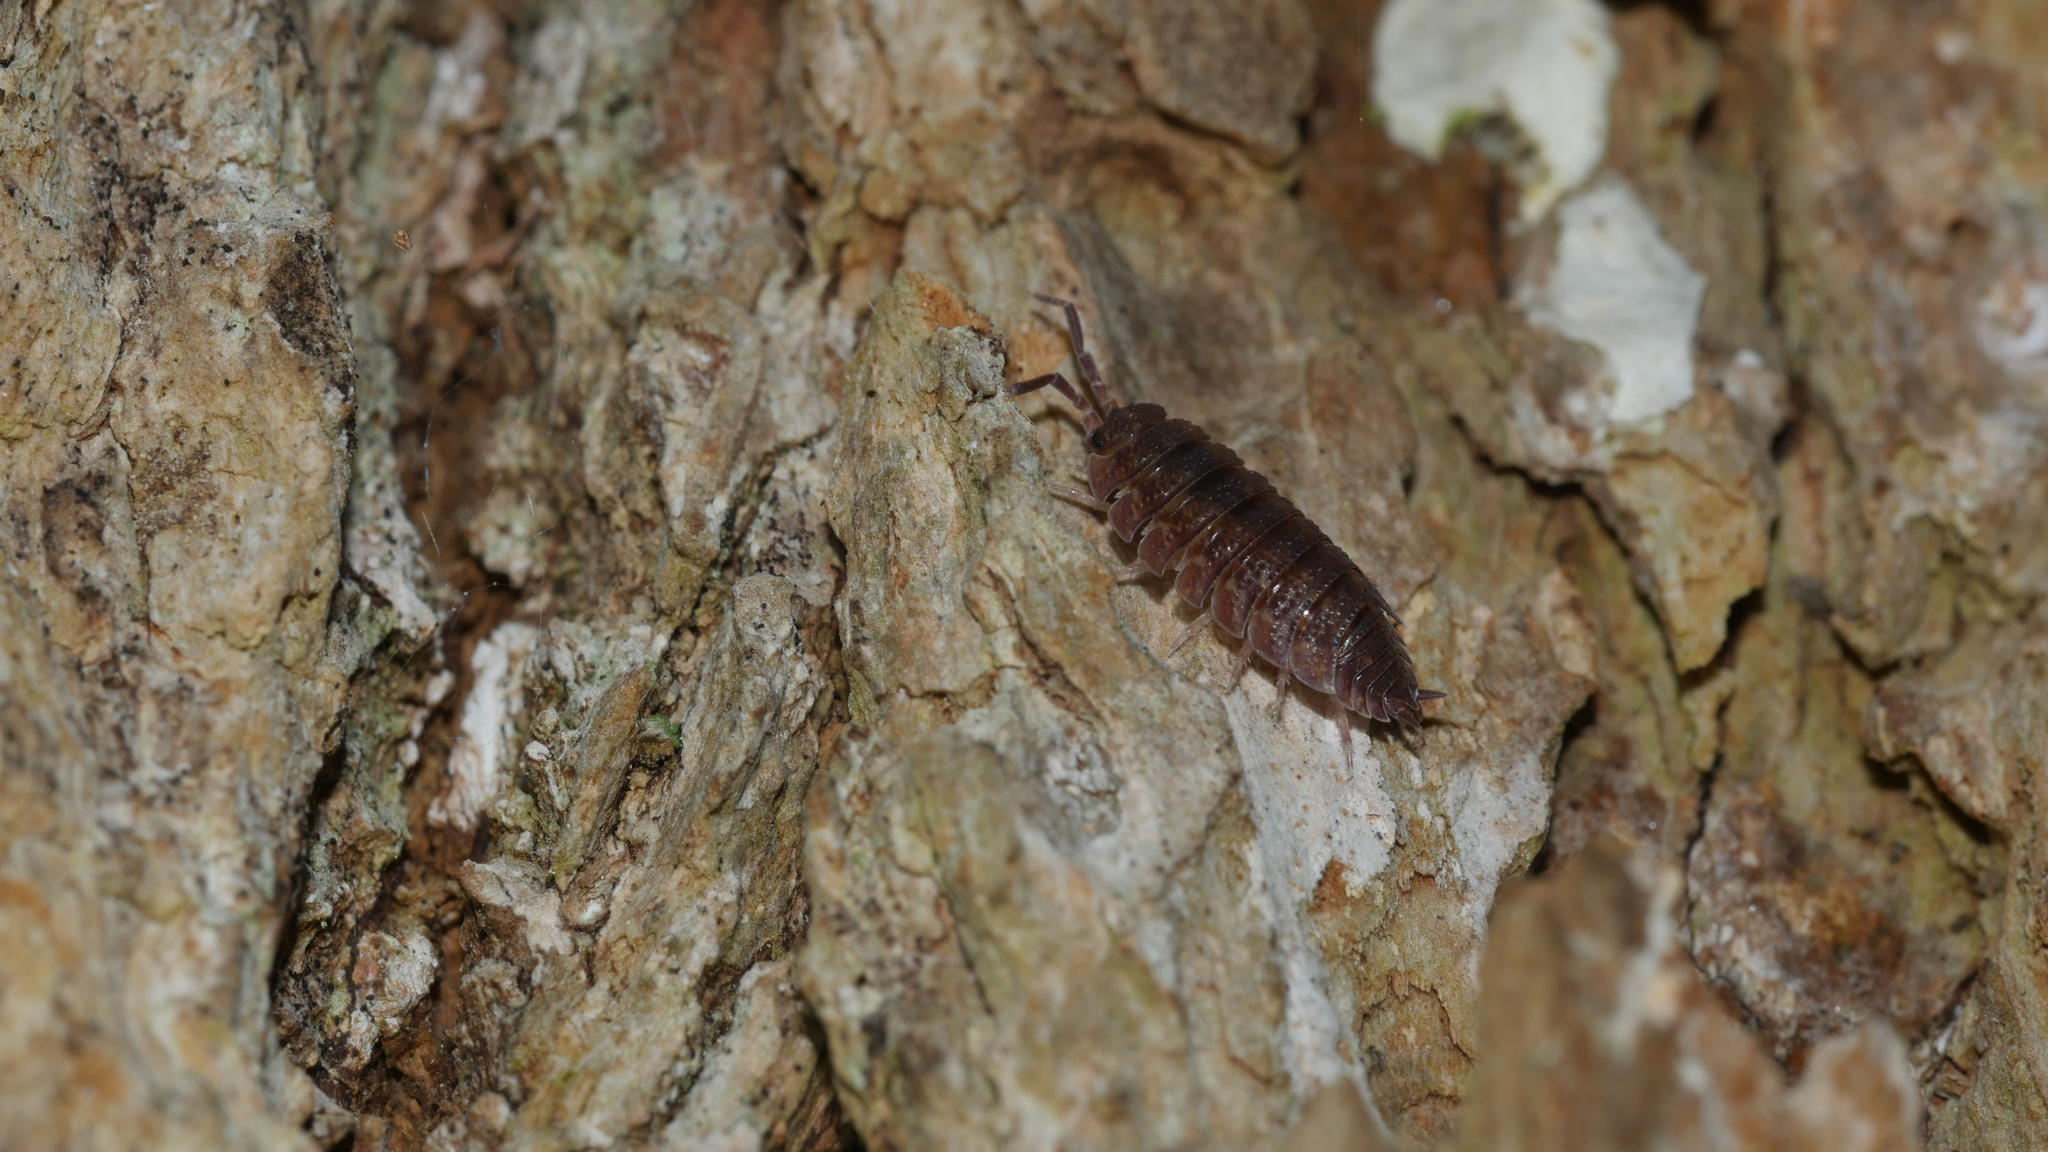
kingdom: Animalia
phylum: Arthropoda
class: Malacostraca
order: Isopoda
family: Porcellionidae
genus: Porcellio
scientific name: Porcellio scaber
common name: Common rough woodlouse
